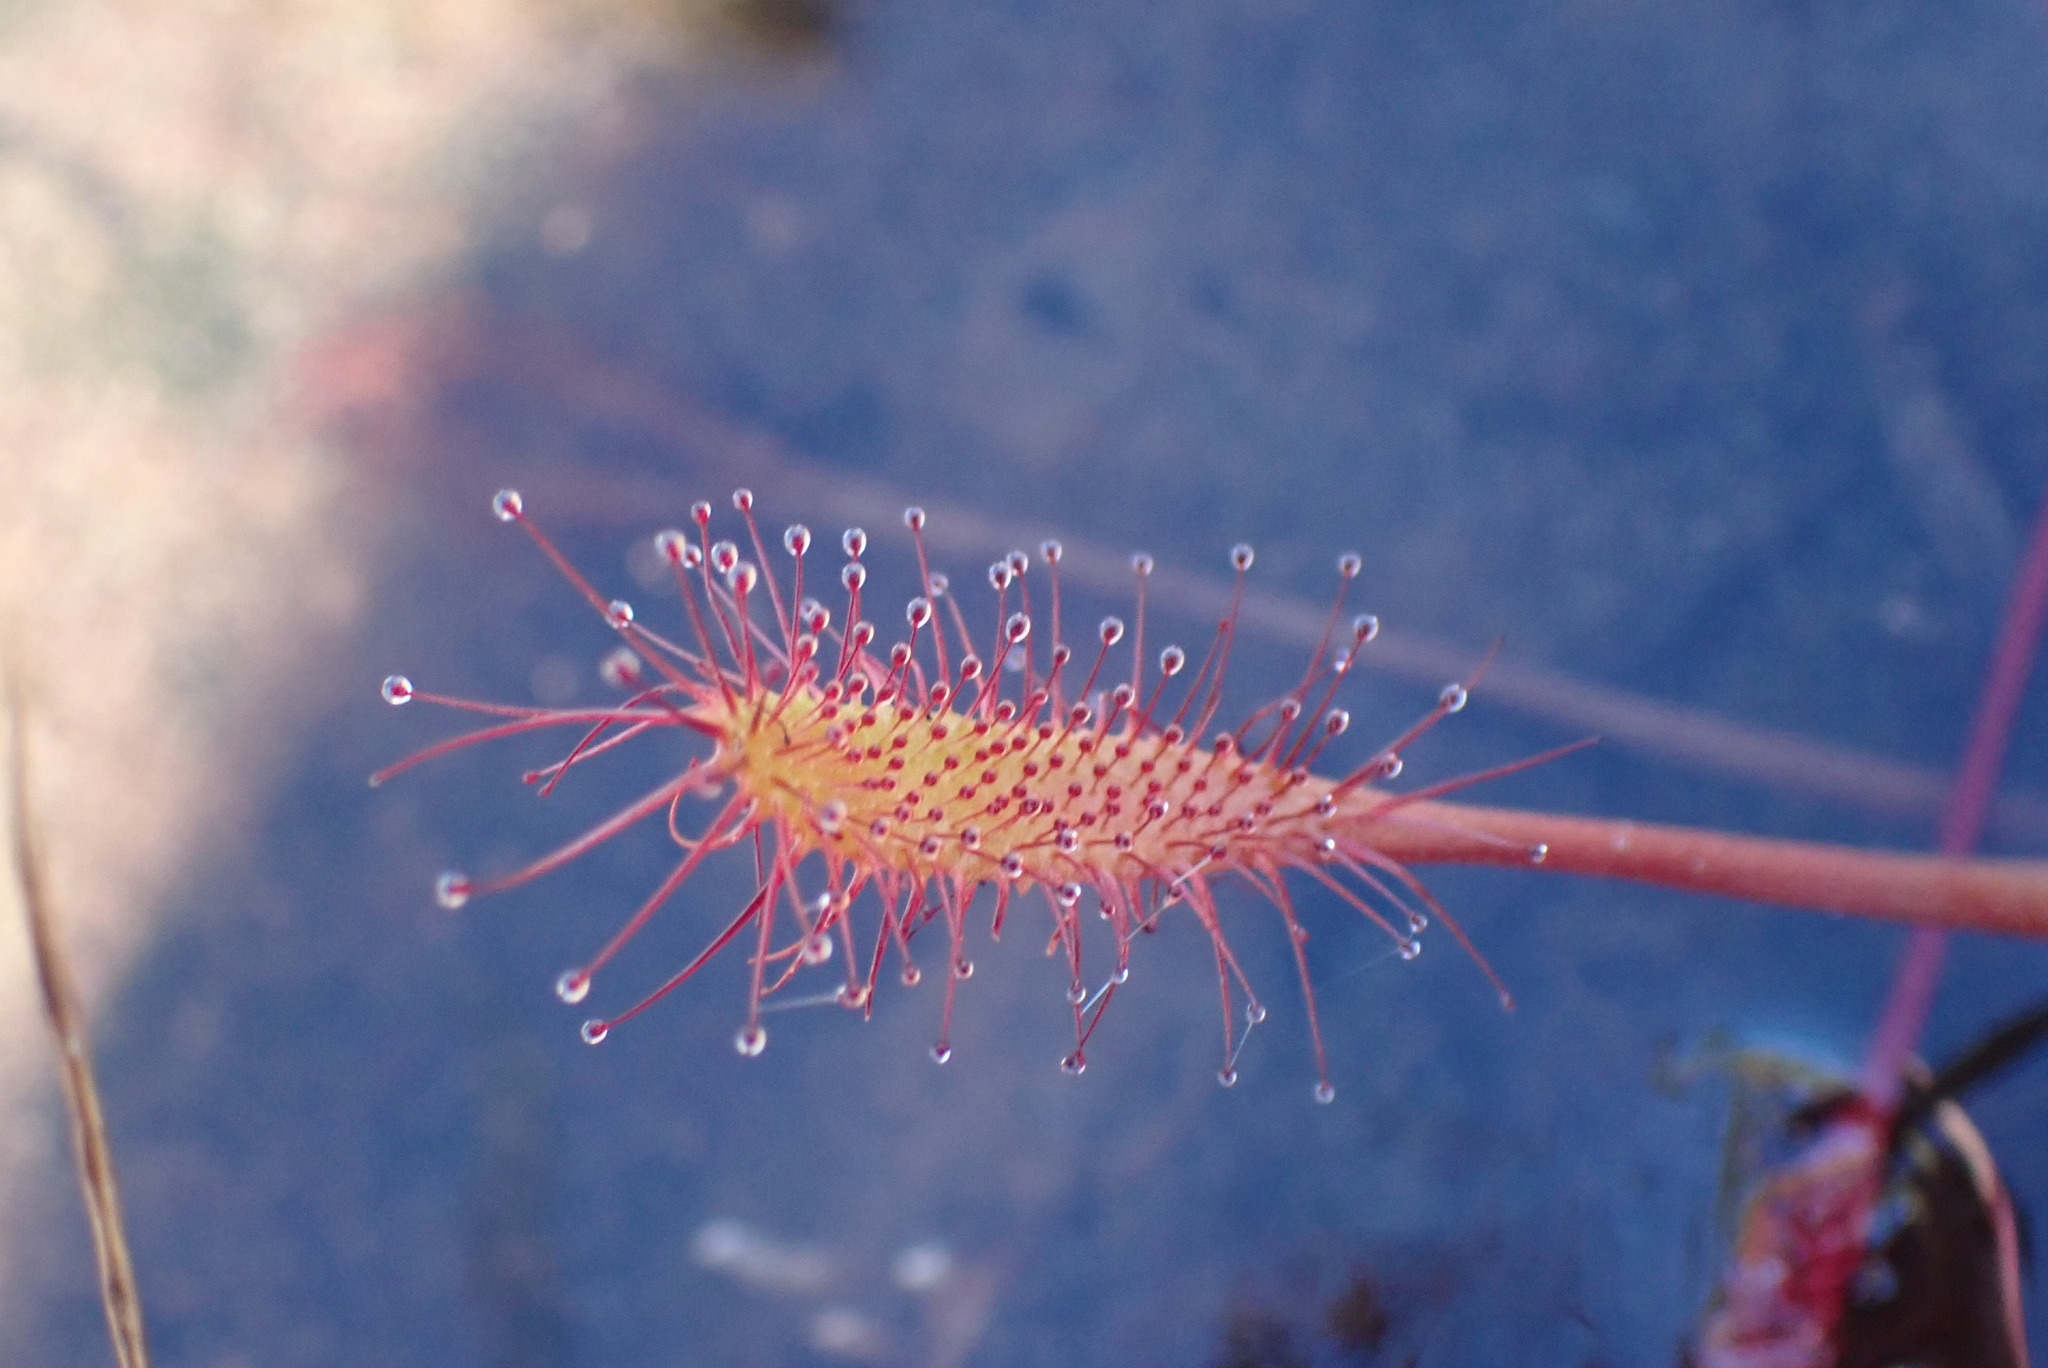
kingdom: Plantae
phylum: Tracheophyta
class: Magnoliopsida
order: Caryophyllales
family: Droseraceae
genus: Drosera
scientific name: Drosera anglica
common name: Great sundew
